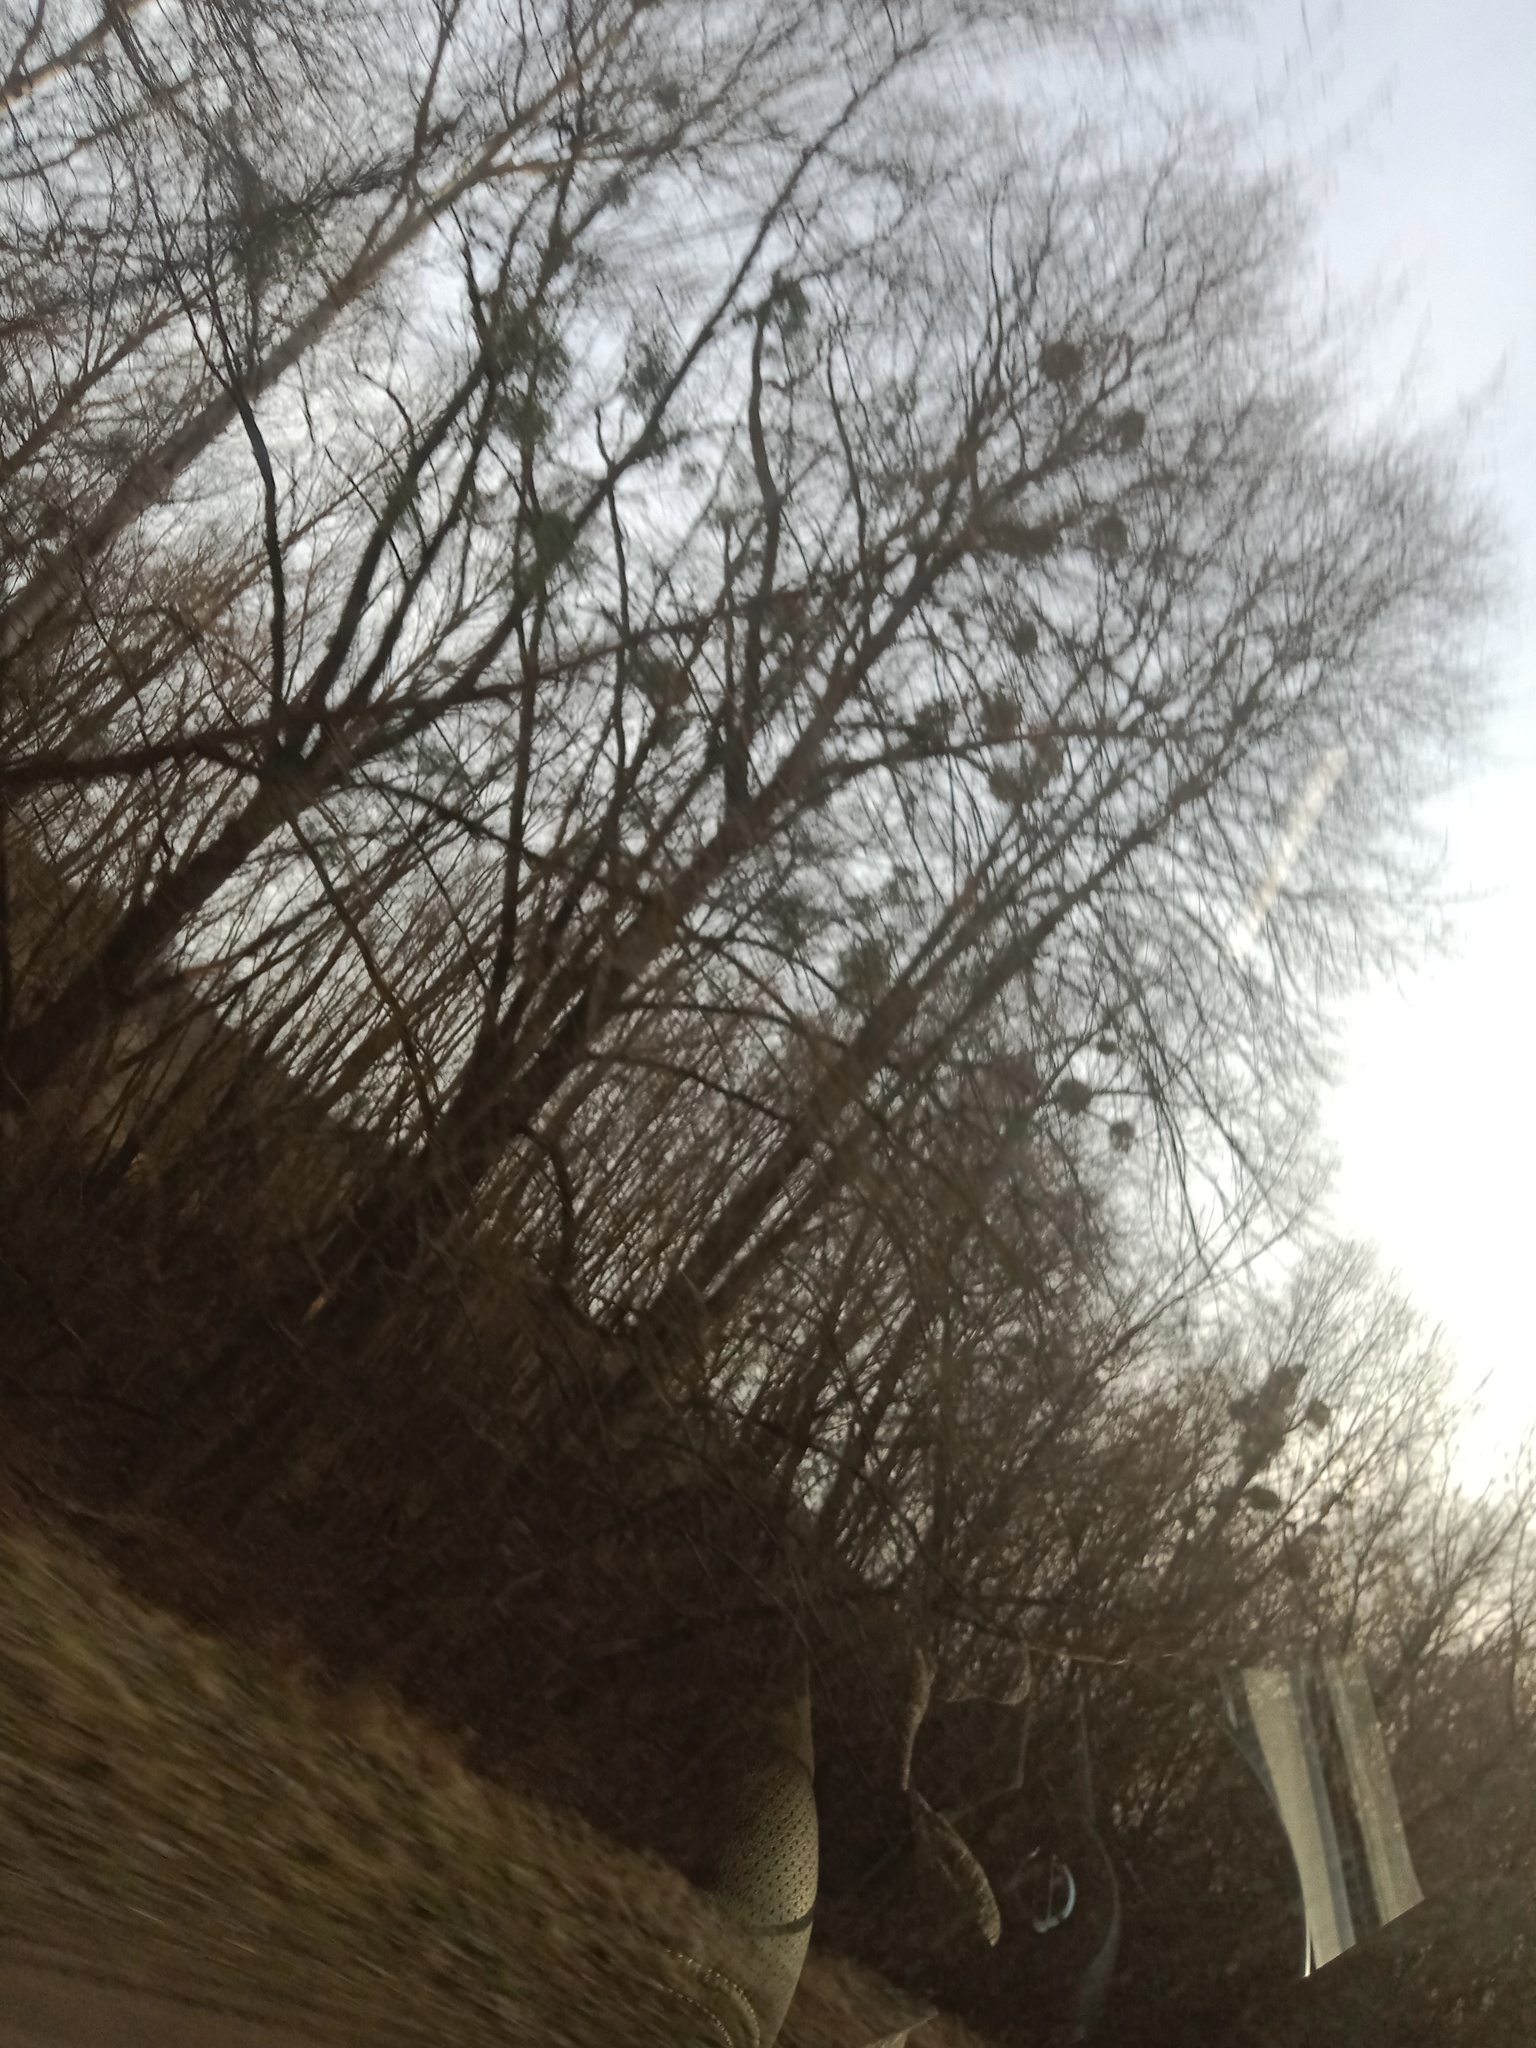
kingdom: Plantae
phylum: Tracheophyta
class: Magnoliopsida
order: Santalales
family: Viscaceae
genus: Viscum
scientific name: Viscum album
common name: Mistletoe
